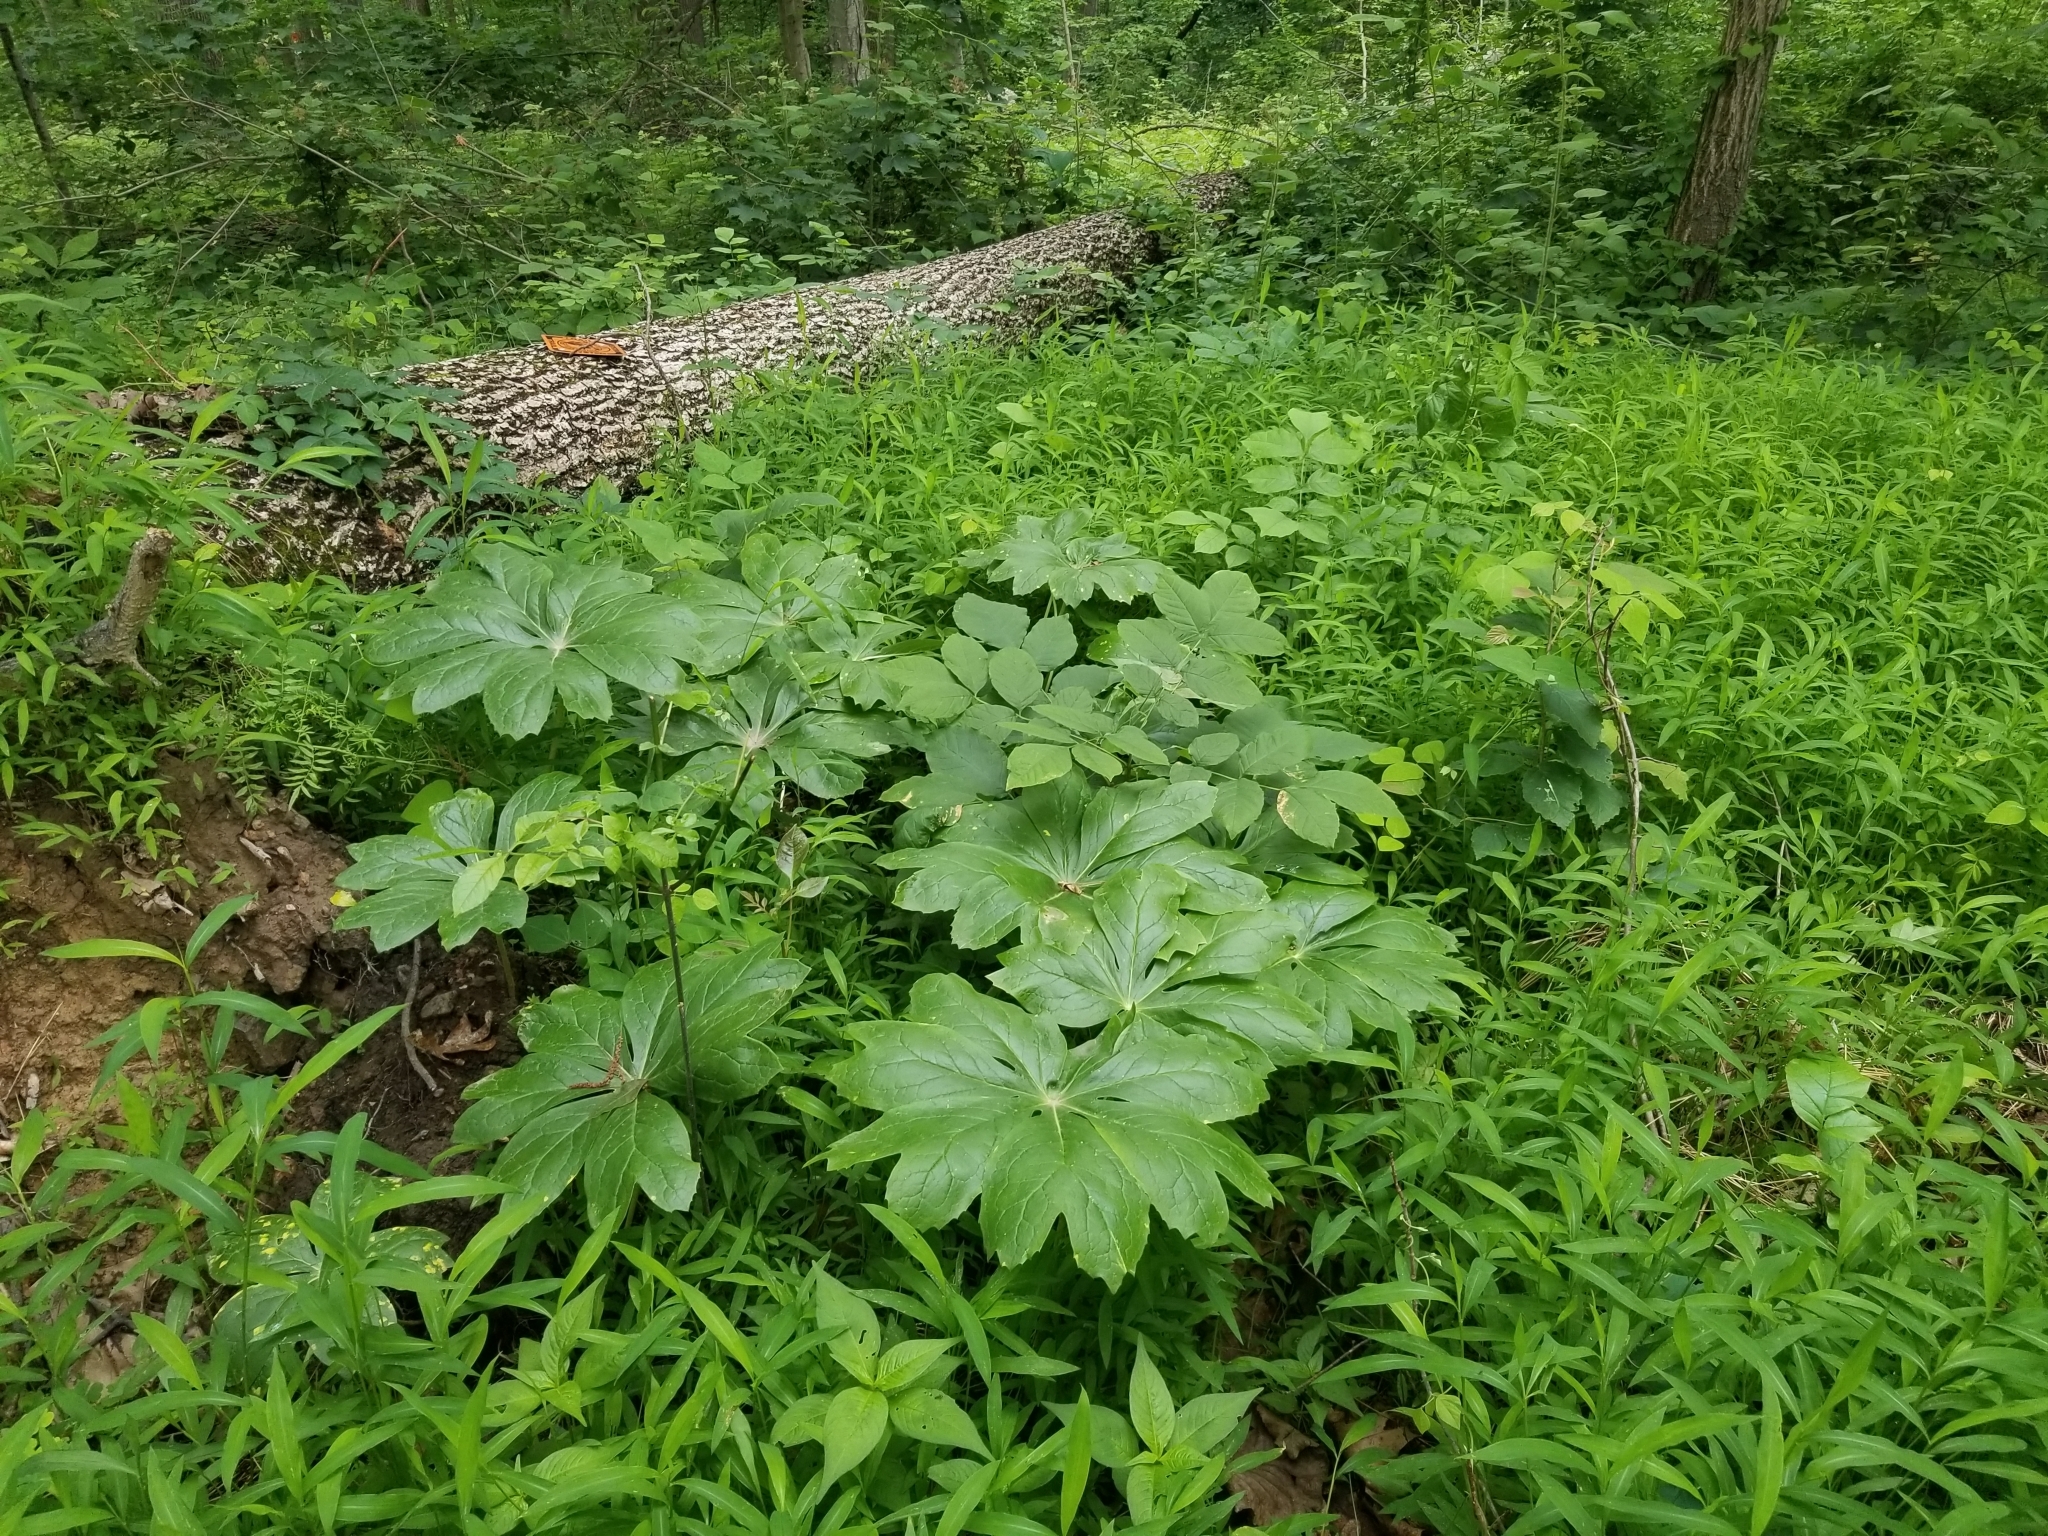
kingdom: Plantae
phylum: Tracheophyta
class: Magnoliopsida
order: Ranunculales
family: Berberidaceae
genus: Podophyllum
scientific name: Podophyllum peltatum
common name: Wild mandrake
